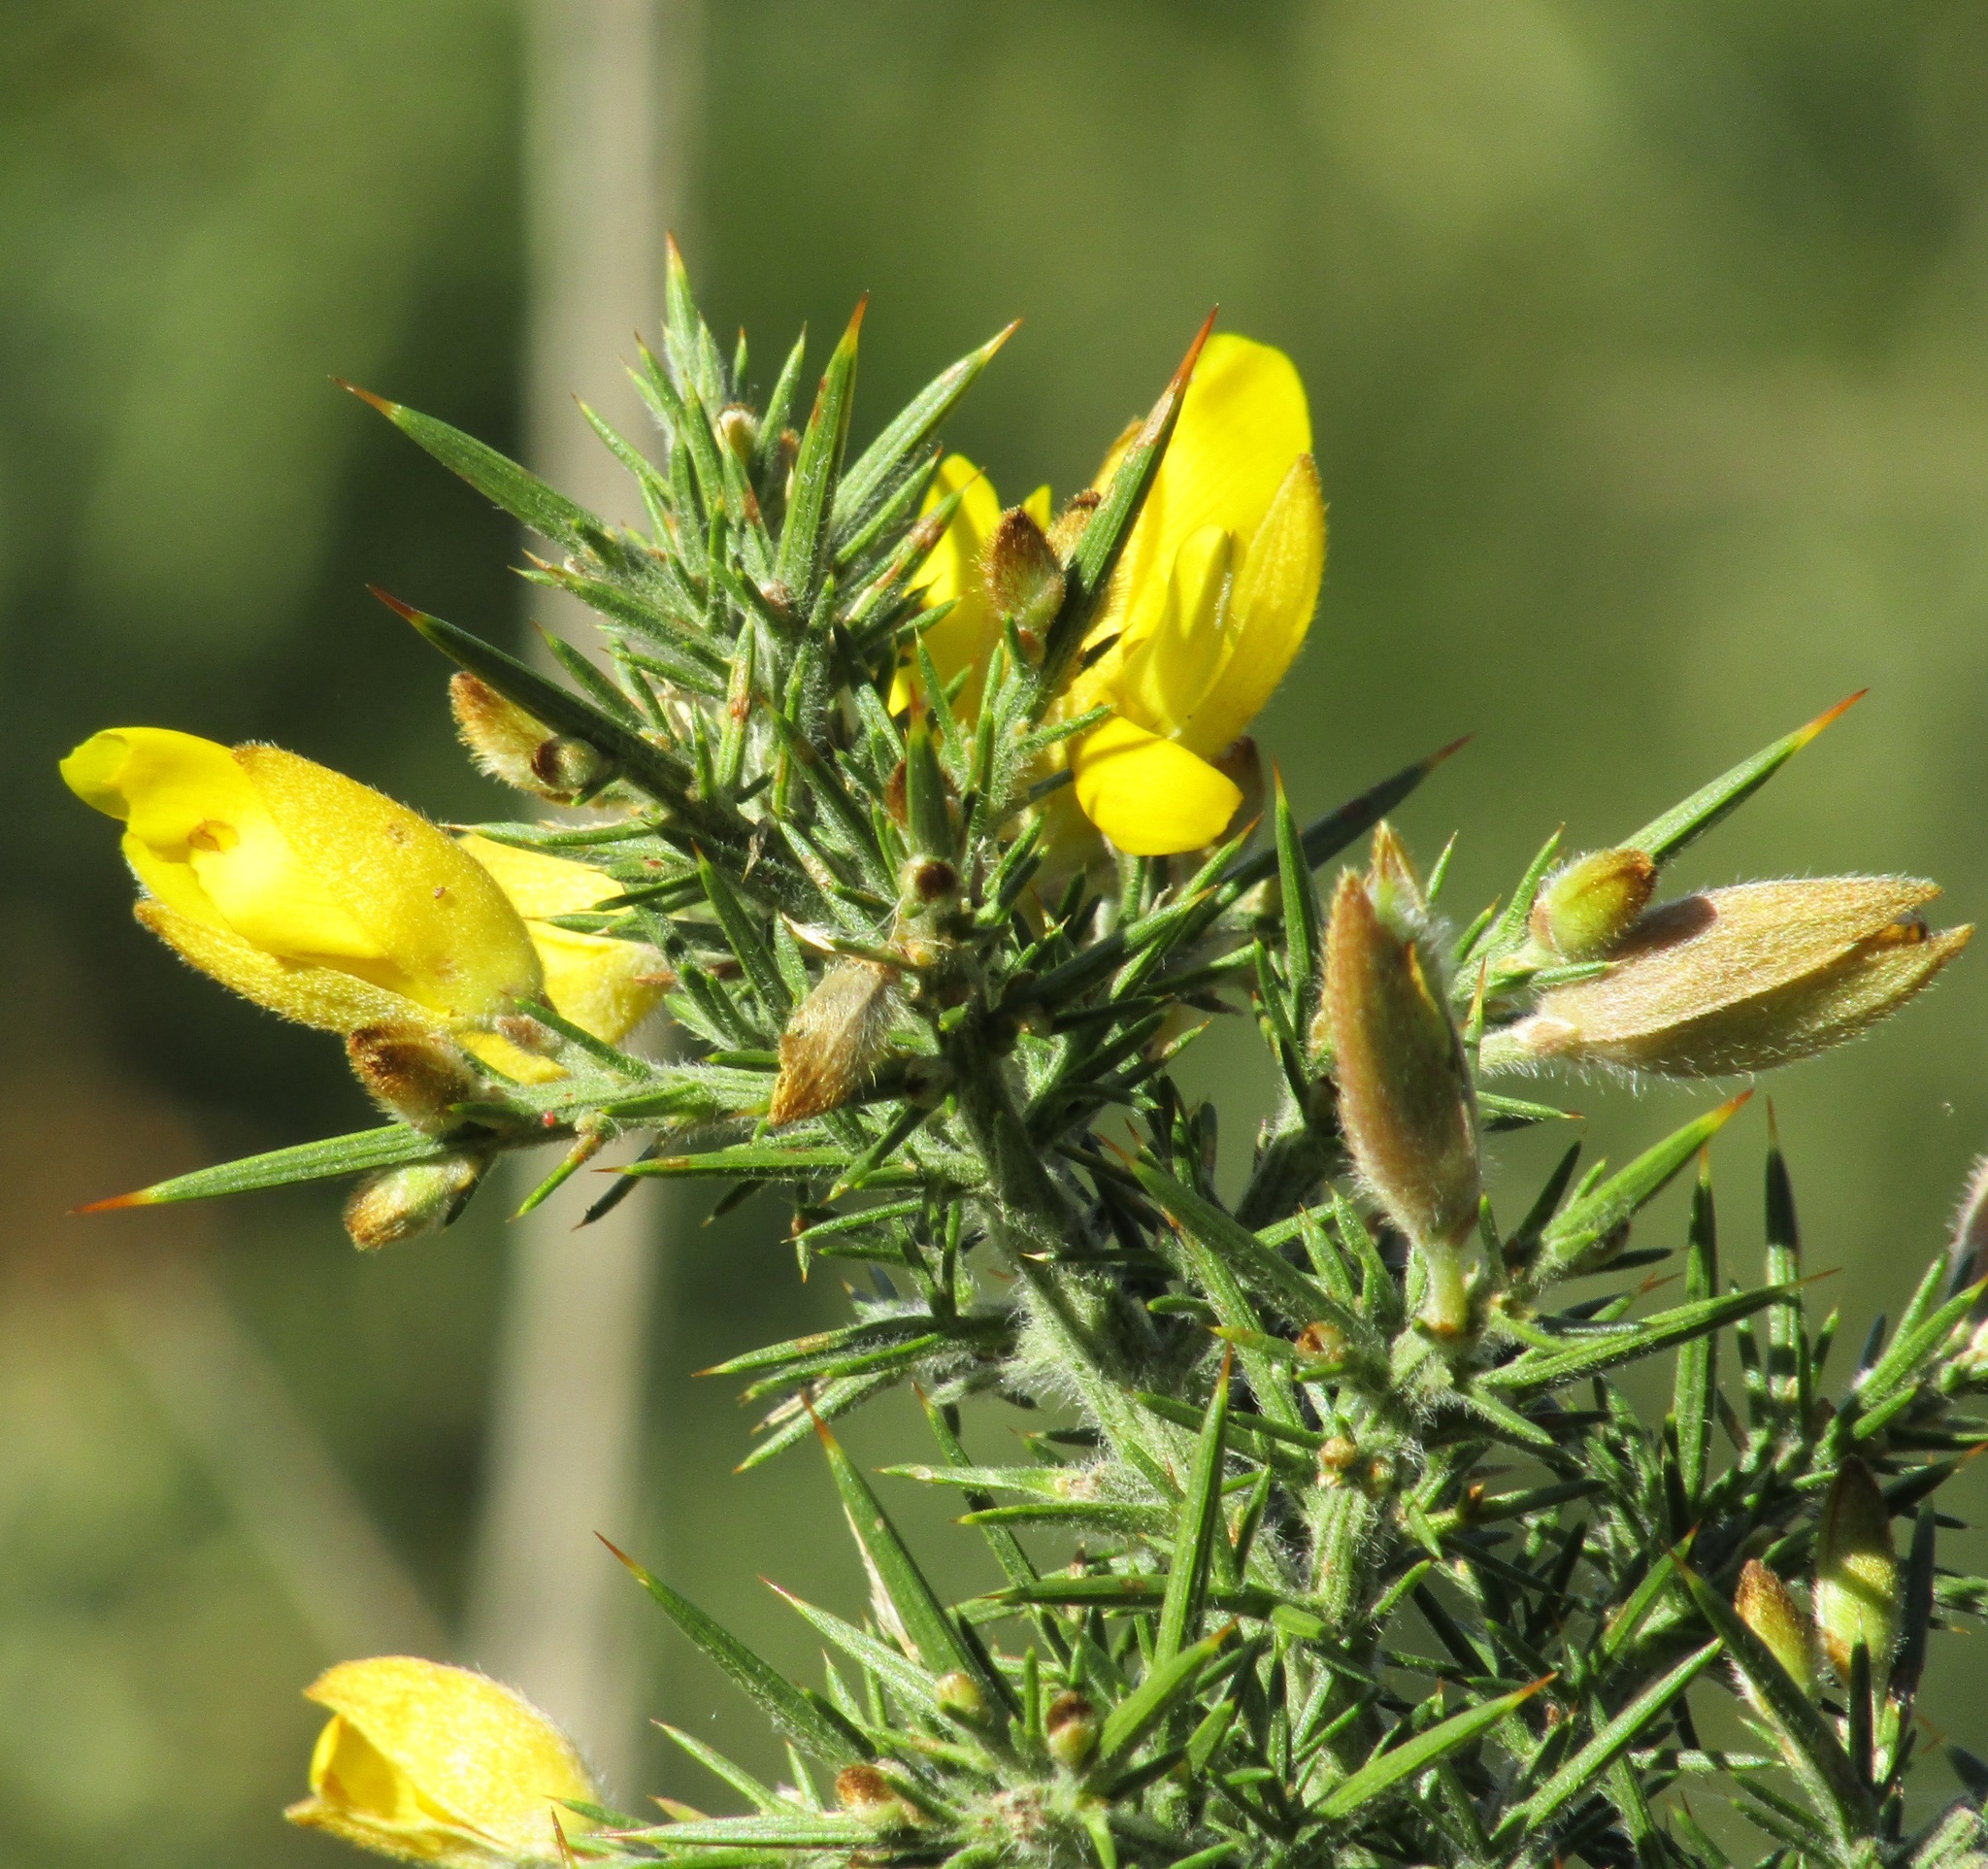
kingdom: Plantae
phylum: Tracheophyta
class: Magnoliopsida
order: Fabales
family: Fabaceae
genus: Ulex
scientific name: Ulex europaeus
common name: Common gorse
